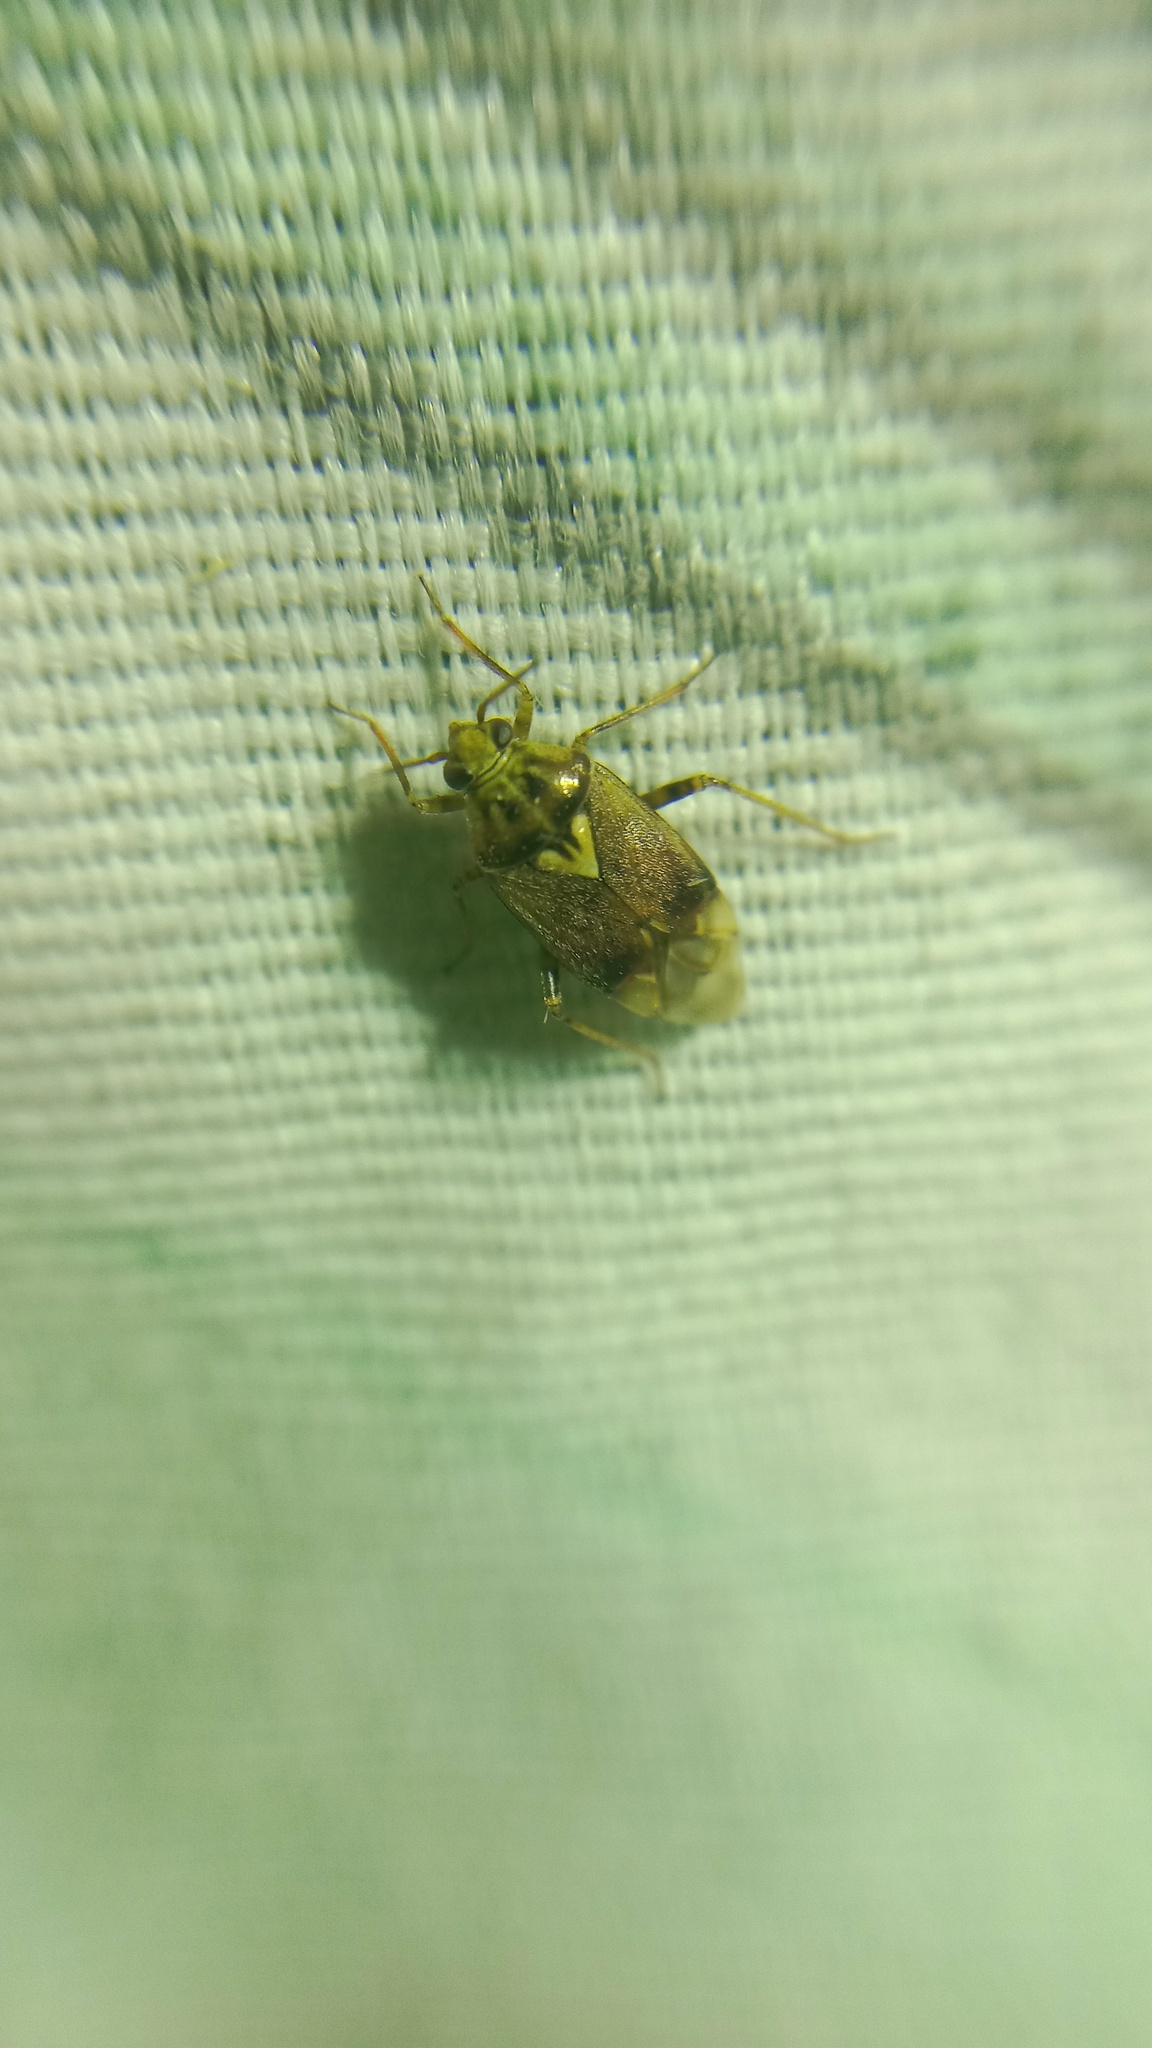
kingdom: Animalia
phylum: Arthropoda
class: Insecta
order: Hemiptera
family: Miridae
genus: Lygus
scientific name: Lygus rugulipennis
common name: European tarnished plant bug
